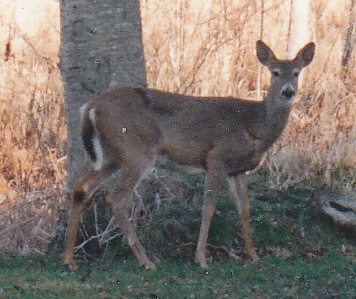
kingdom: Animalia
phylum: Chordata
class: Mammalia
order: Artiodactyla
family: Cervidae
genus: Odocoileus
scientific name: Odocoileus virginianus
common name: White-tailed deer
